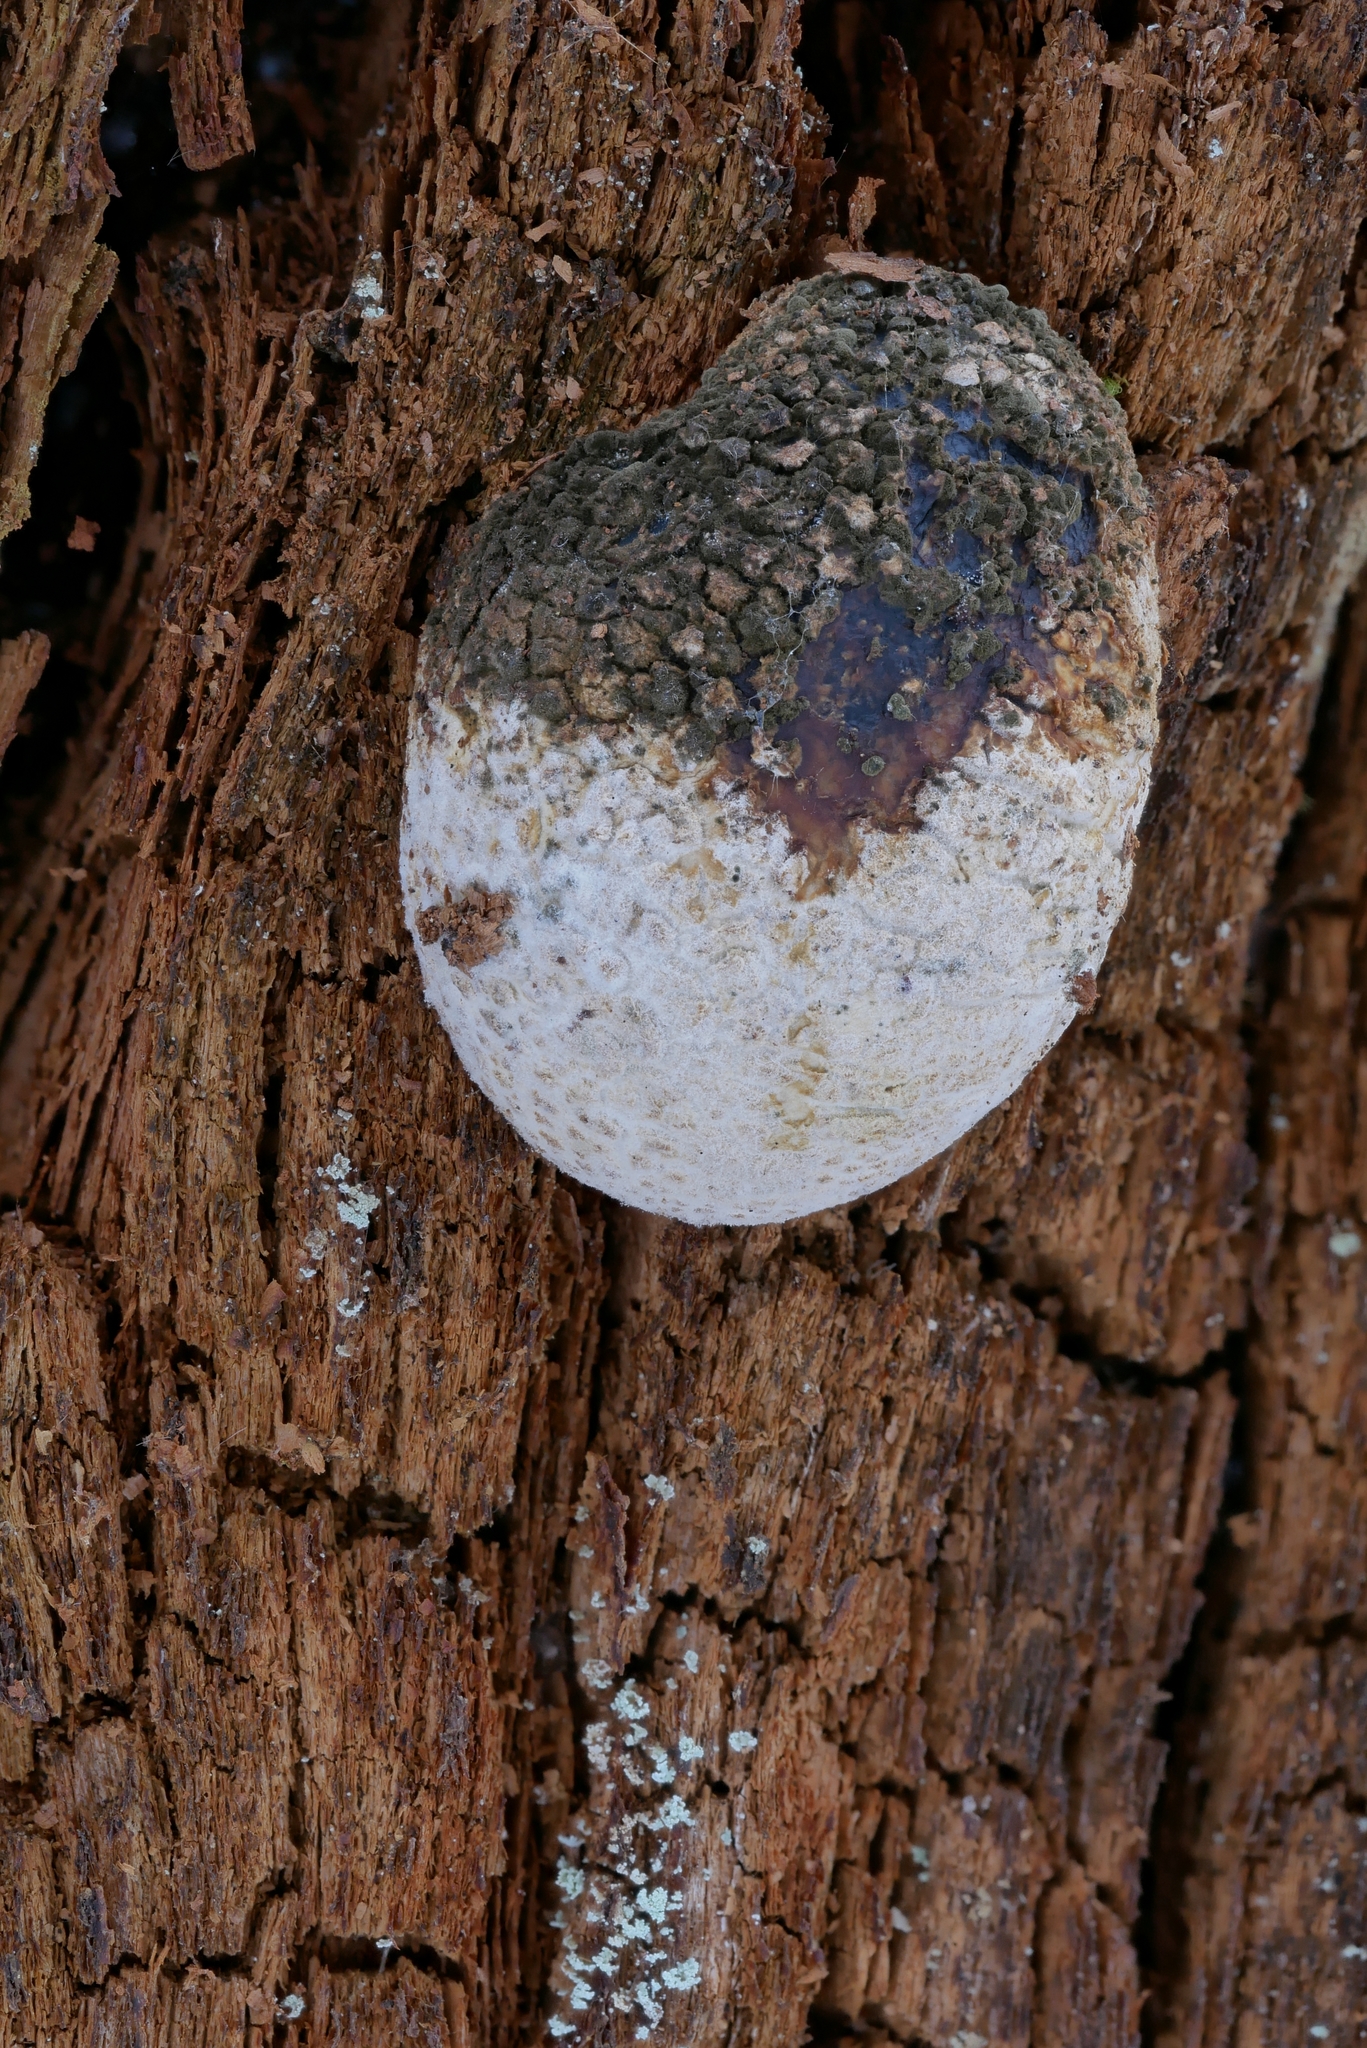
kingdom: Fungi
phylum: Basidiomycota
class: Agaricomycetes
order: Boletales
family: Sclerodermataceae
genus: Scleroderma
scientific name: Scleroderma citrinum
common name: Common earthball
